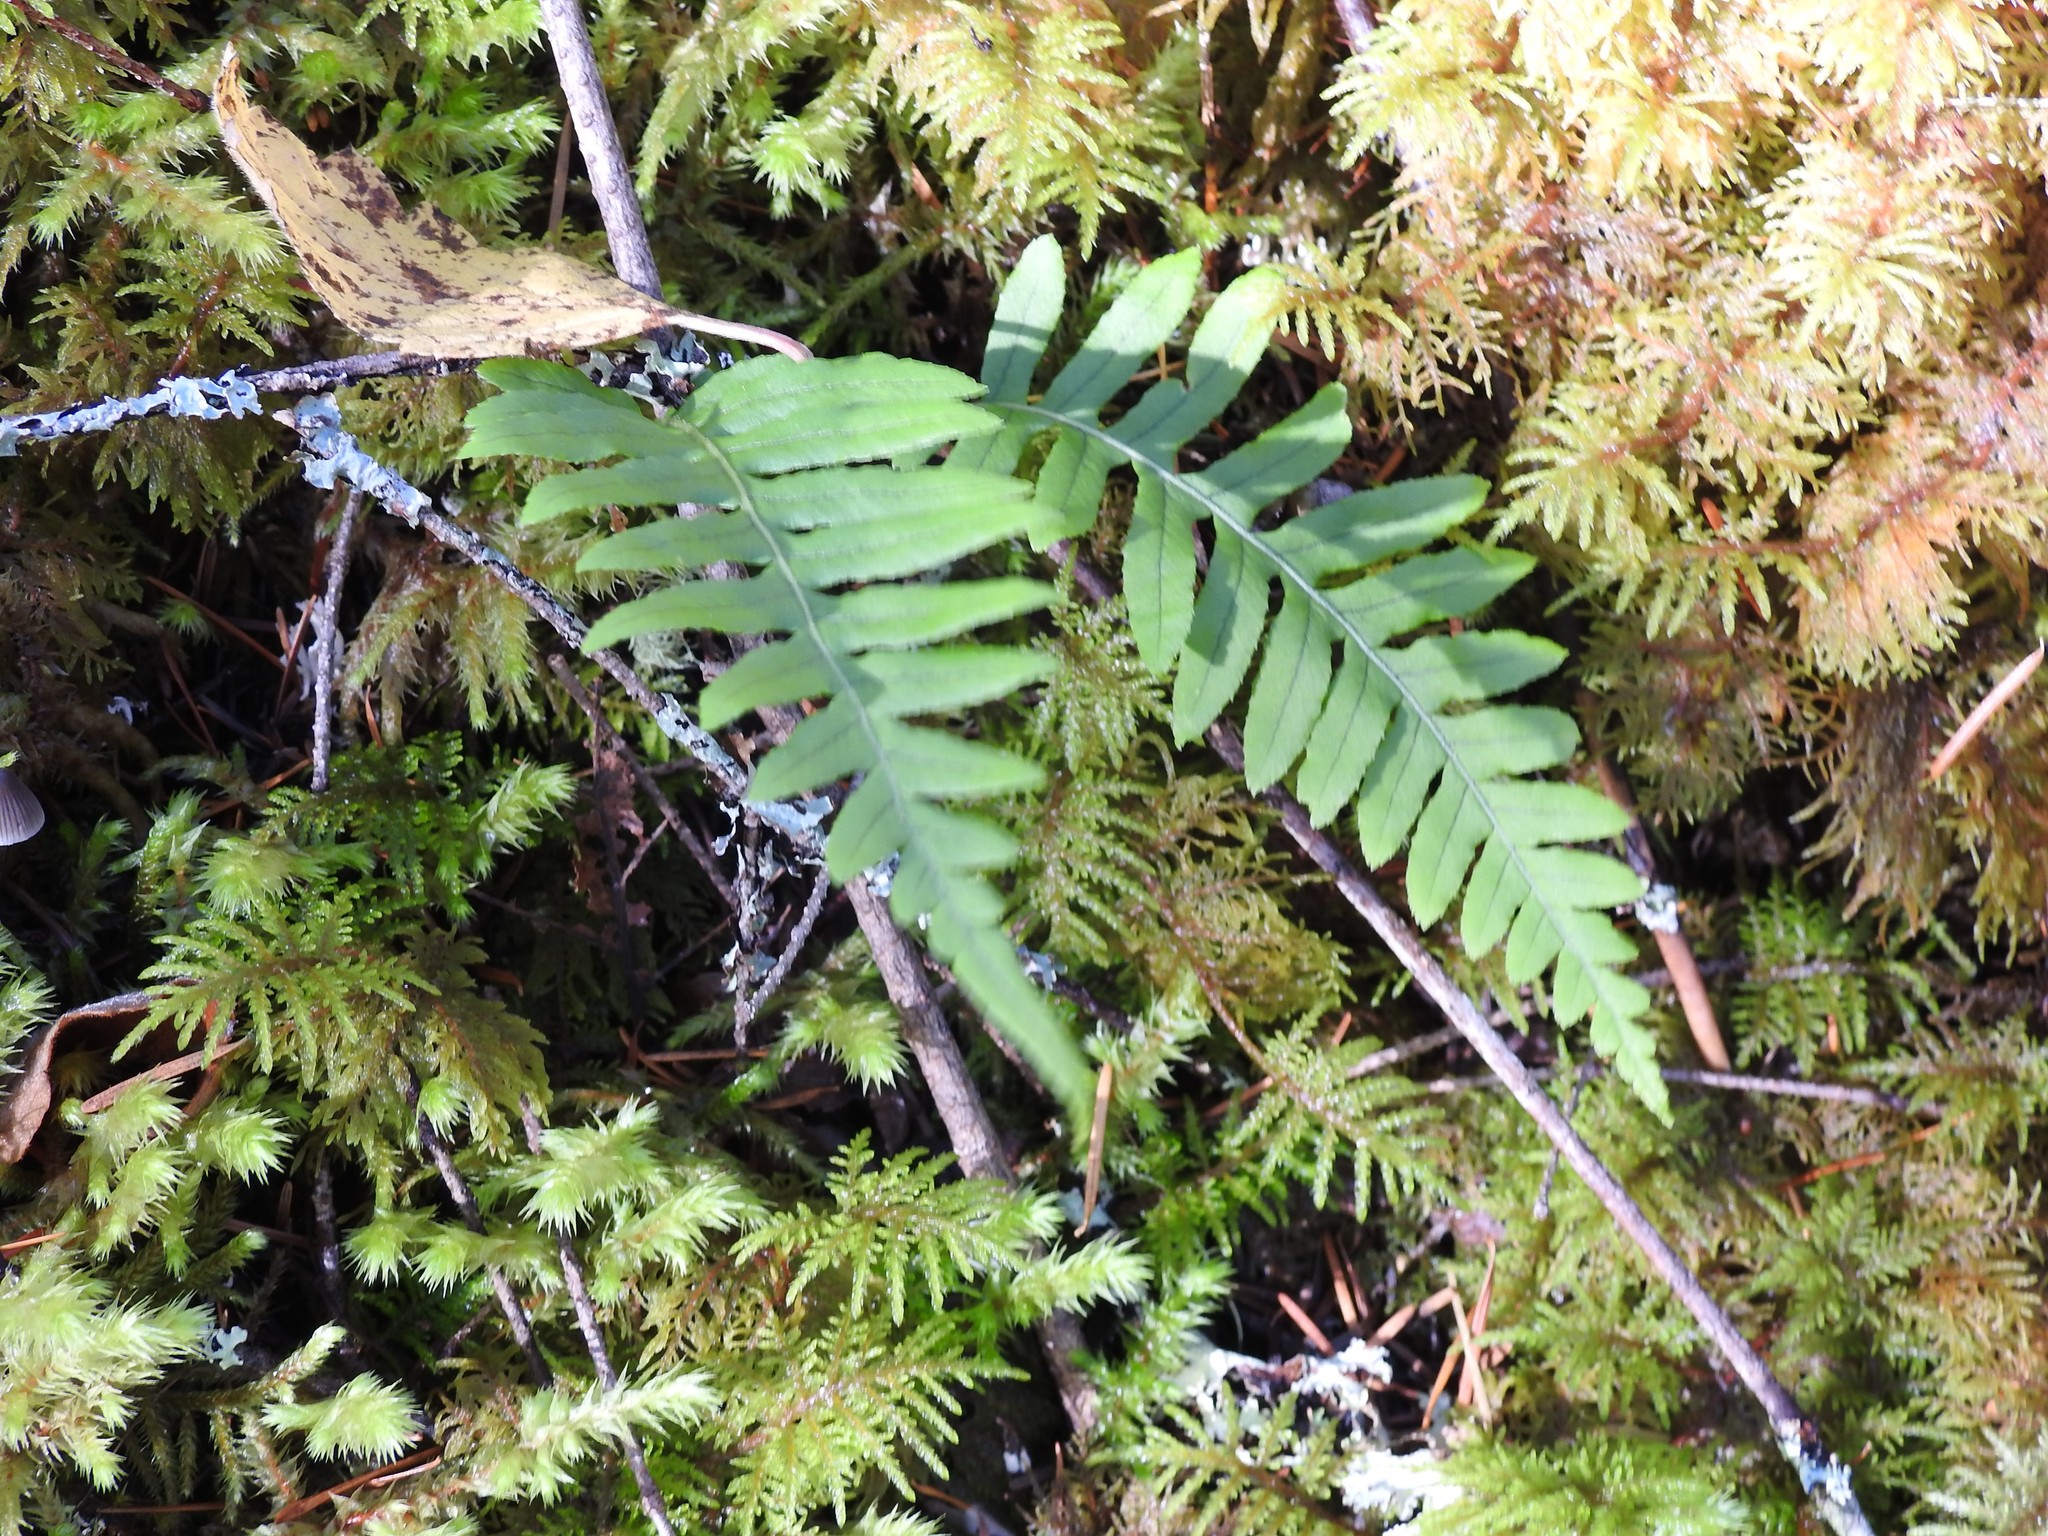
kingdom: Plantae
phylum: Tracheophyta
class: Polypodiopsida
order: Polypodiales
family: Polypodiaceae
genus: Polypodium
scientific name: Polypodium glycyrrhiza
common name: Licorice fern
